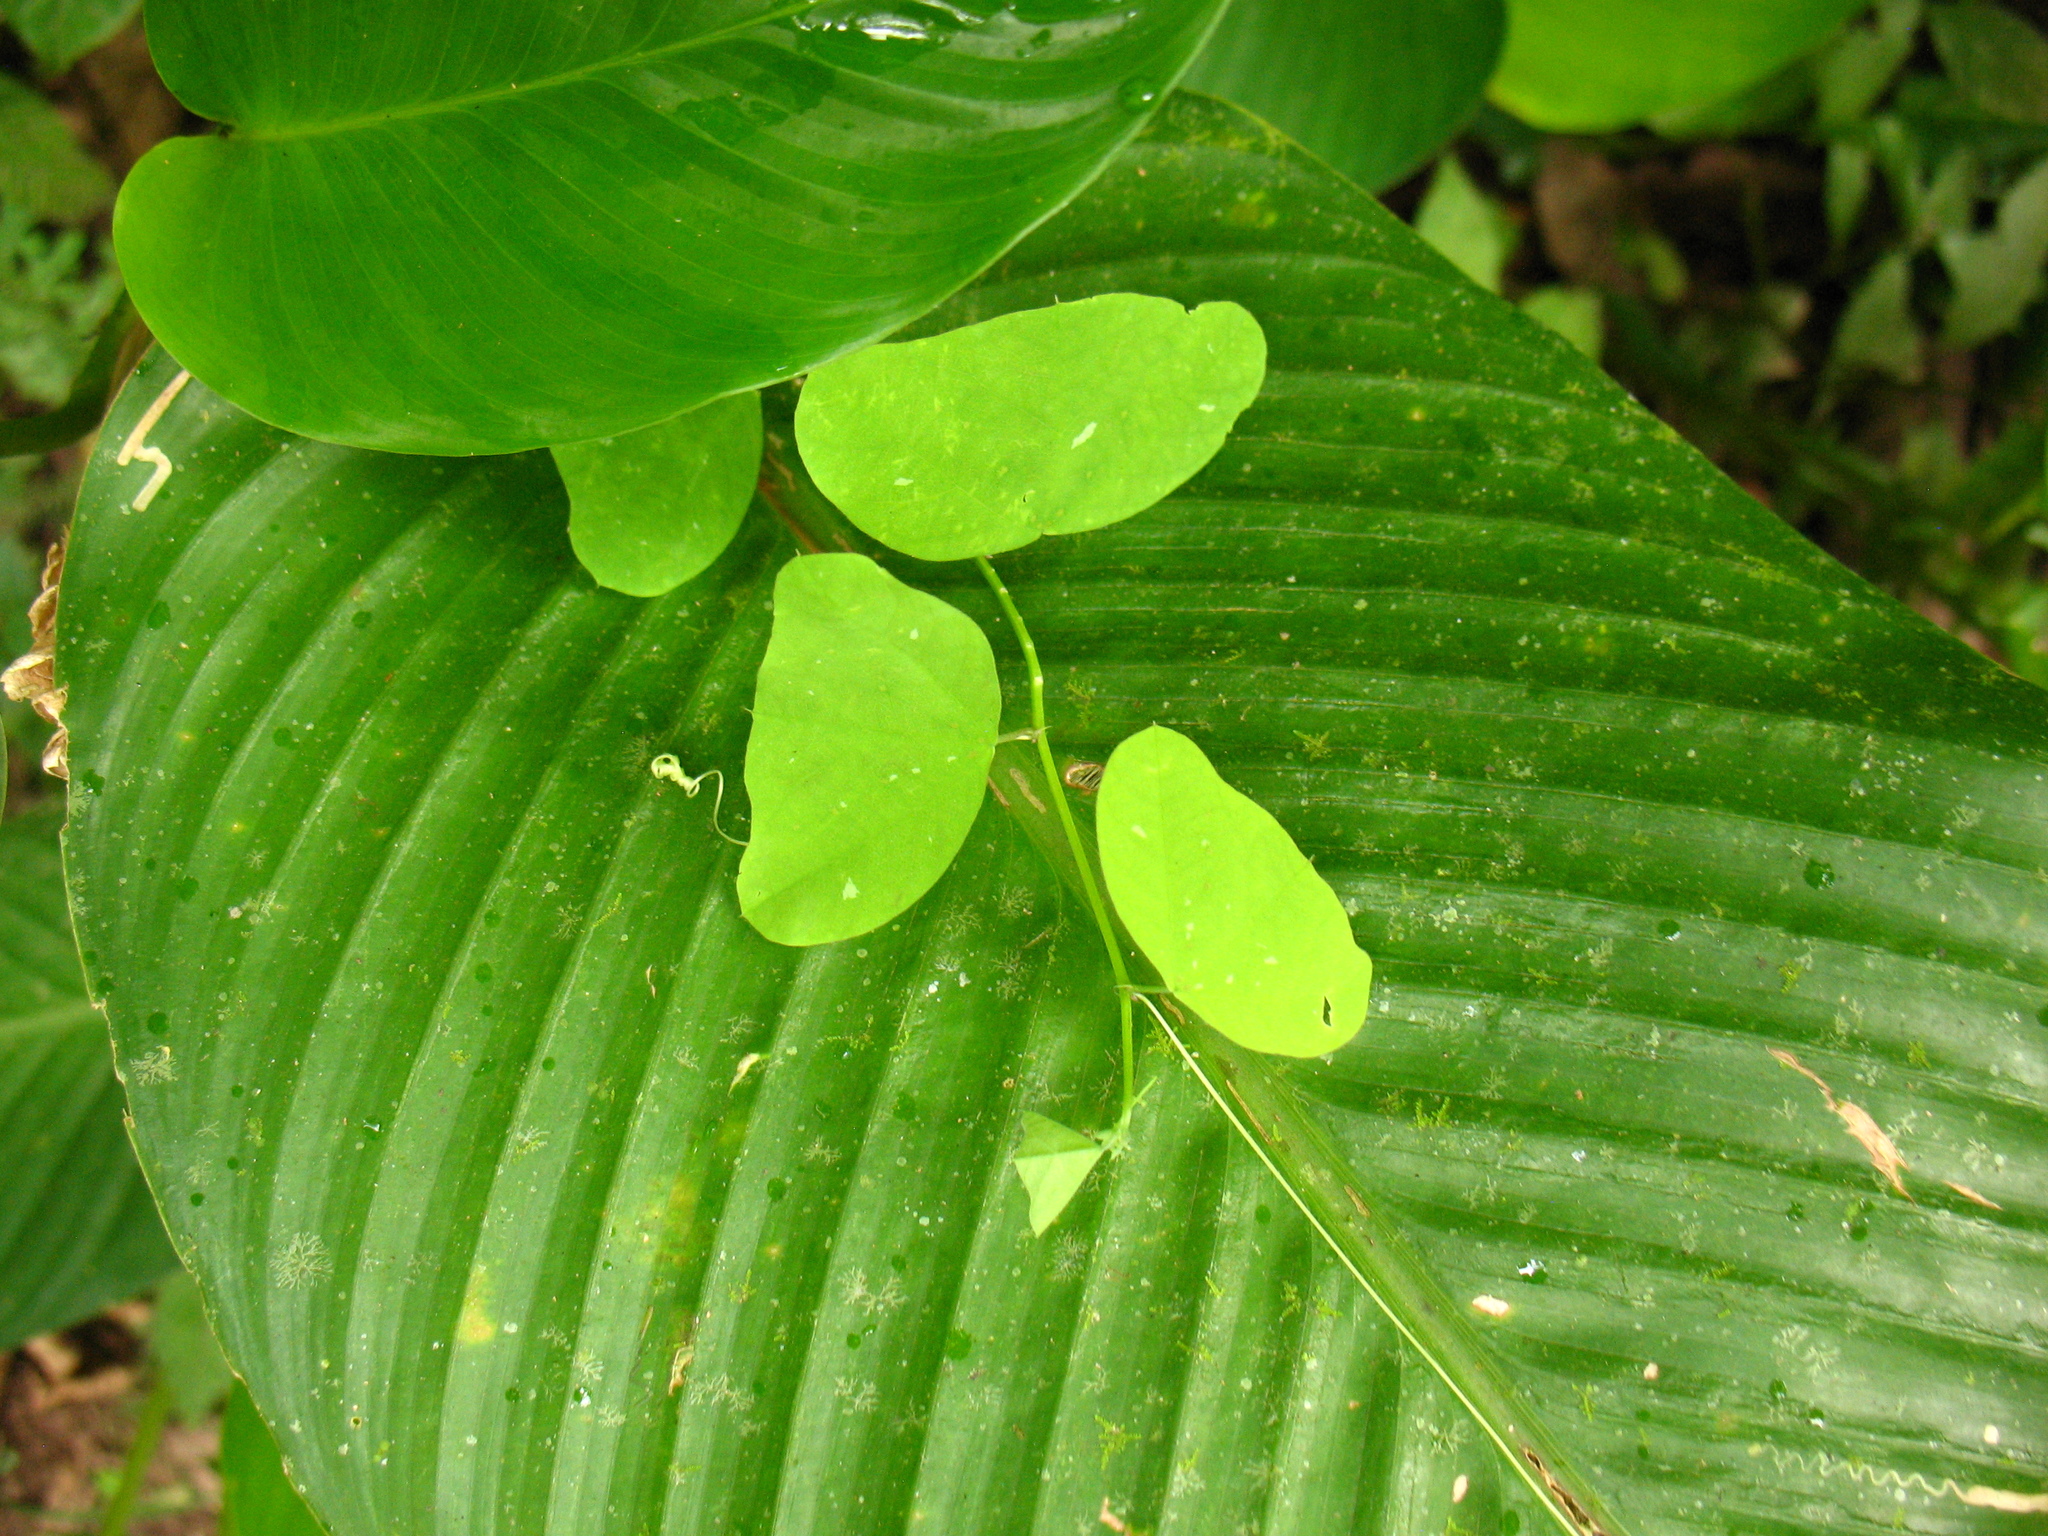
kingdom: Plantae
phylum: Tracheophyta
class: Magnoliopsida
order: Malpighiales
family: Passifloraceae
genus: Passiflora
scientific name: Passiflora nubicola
